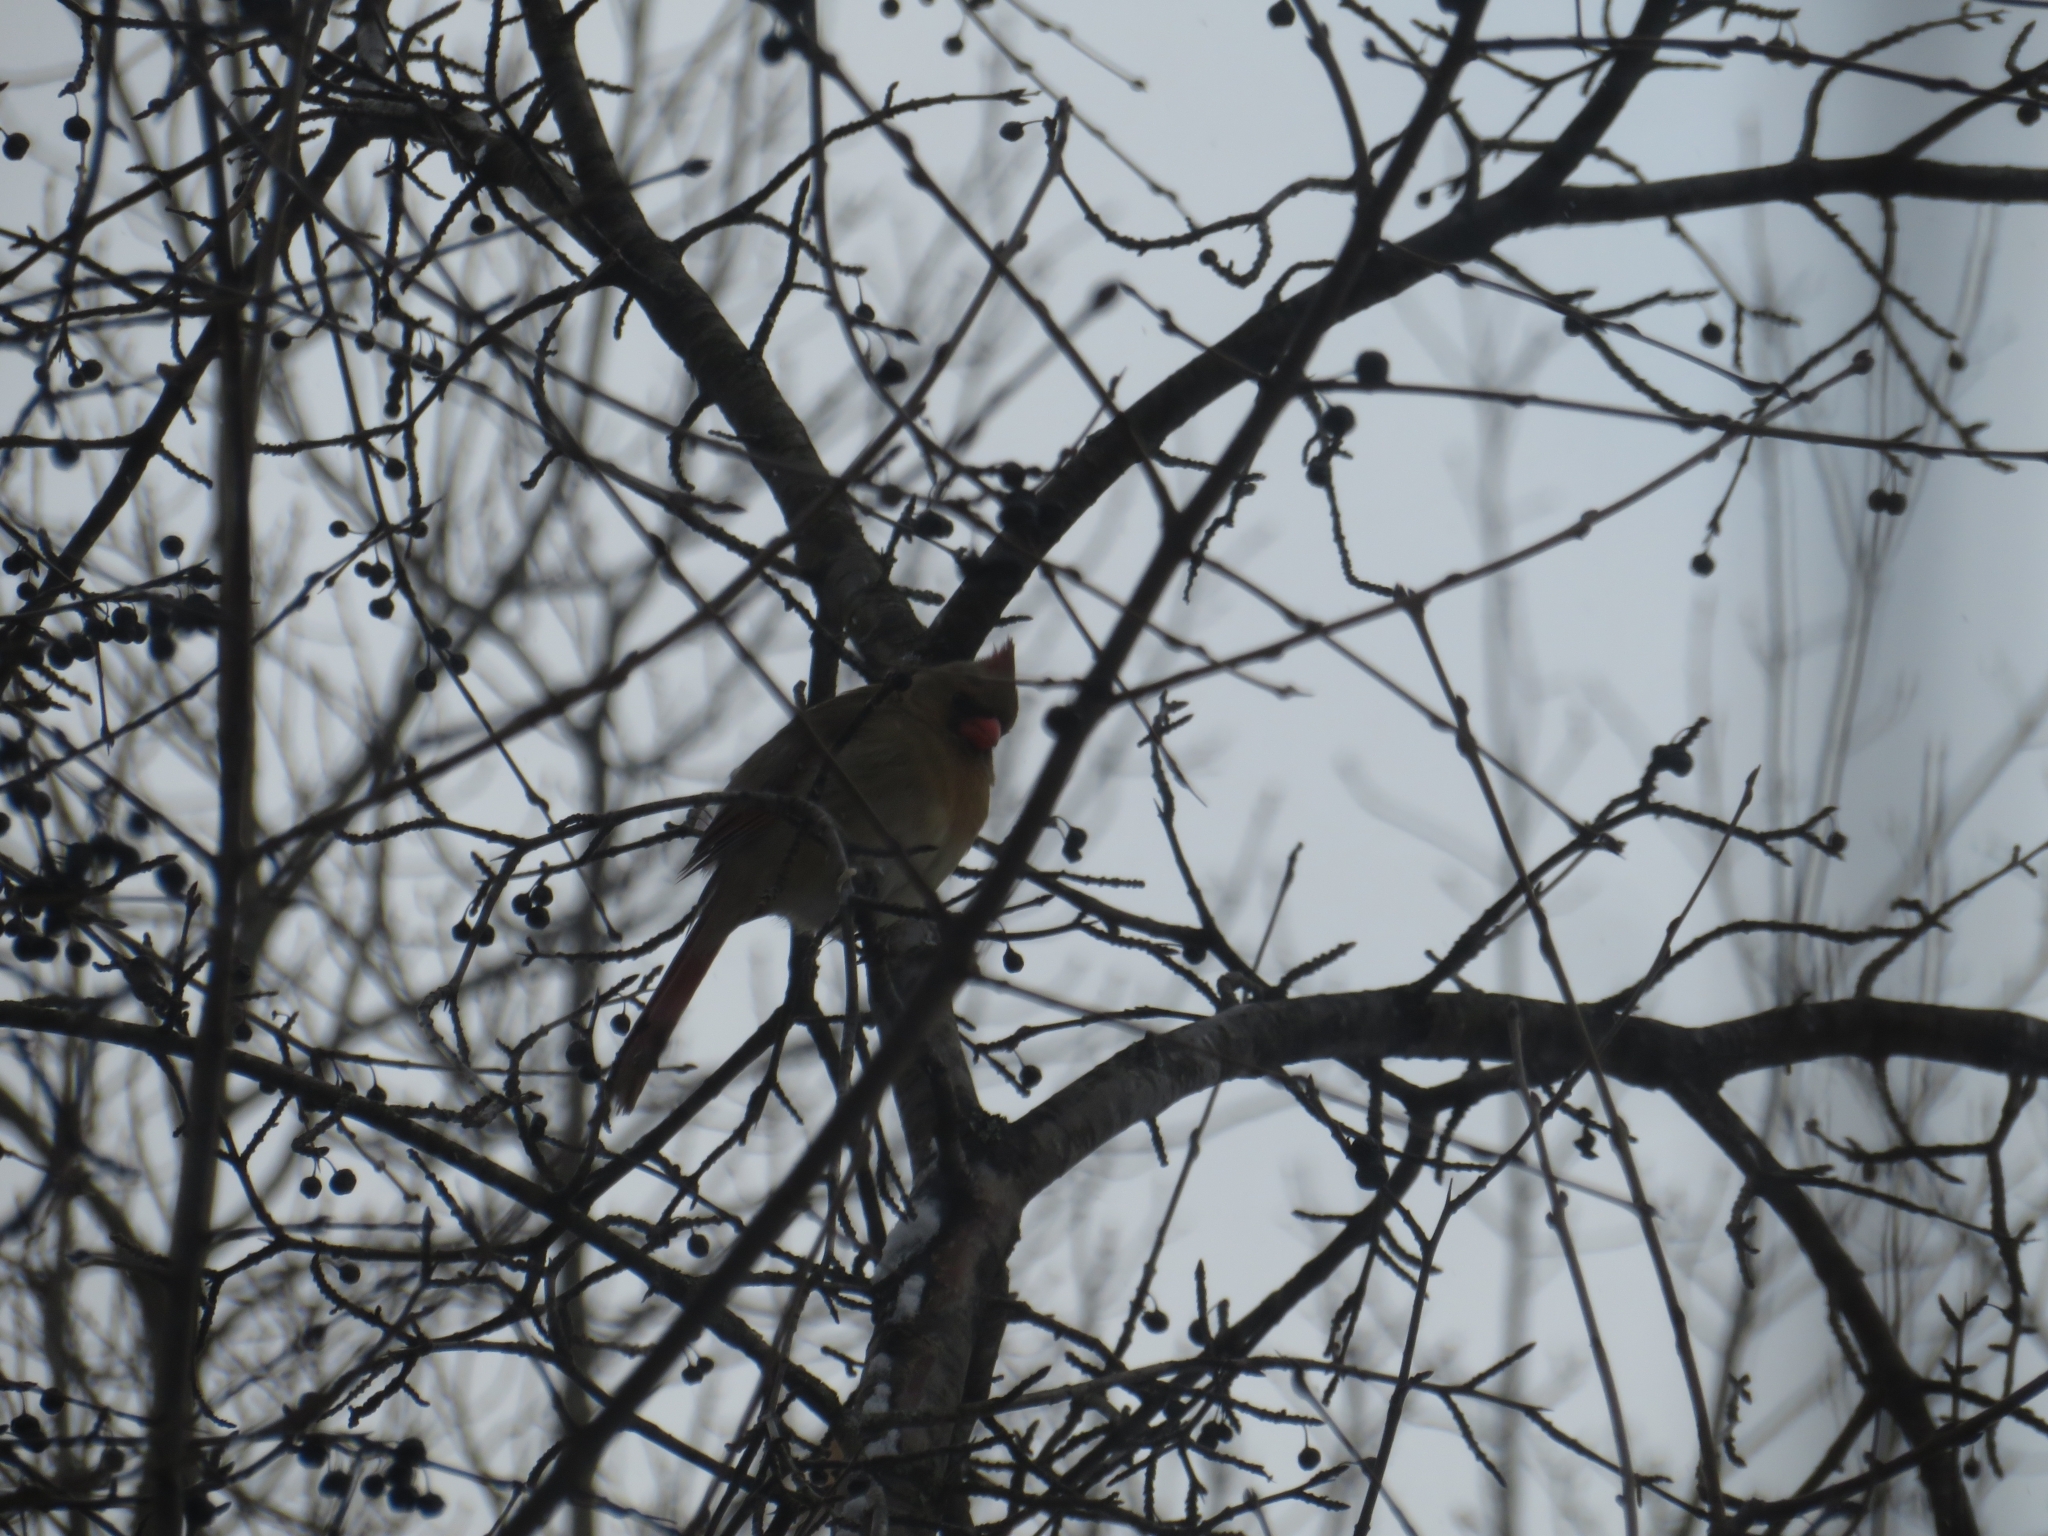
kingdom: Animalia
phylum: Chordata
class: Aves
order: Passeriformes
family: Cardinalidae
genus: Cardinalis
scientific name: Cardinalis cardinalis
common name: Northern cardinal
